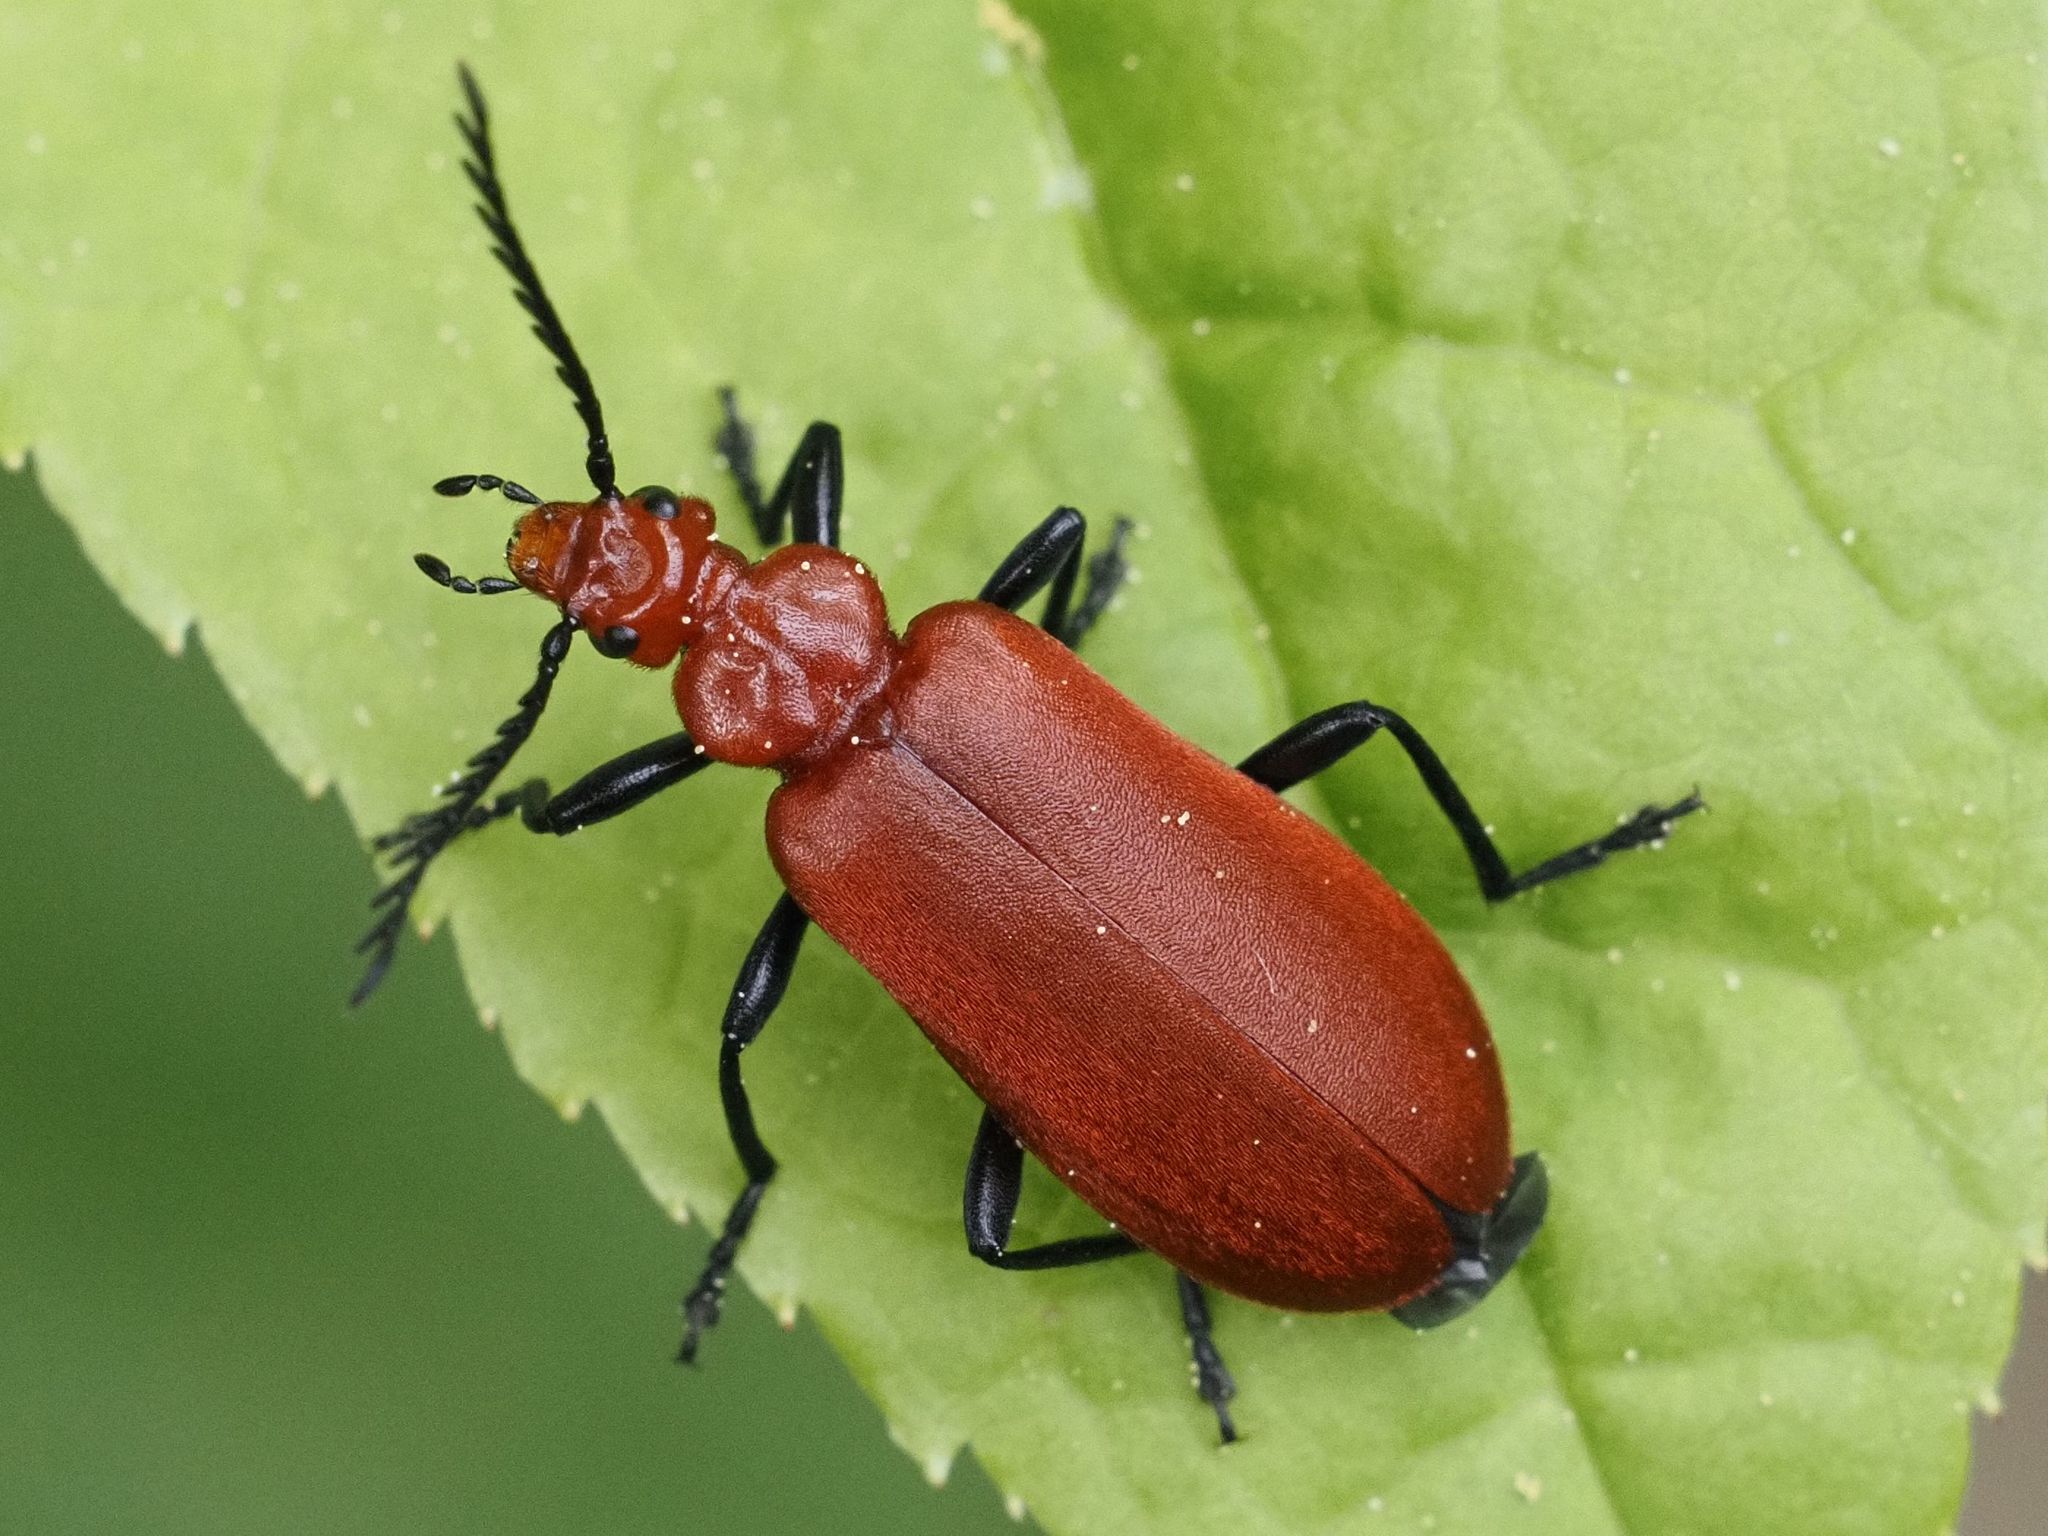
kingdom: Animalia
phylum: Arthropoda
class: Insecta
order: Coleoptera
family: Pyrochroidae
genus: Pyrochroa
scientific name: Pyrochroa serraticornis
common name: Red-headed cardinal beetle
